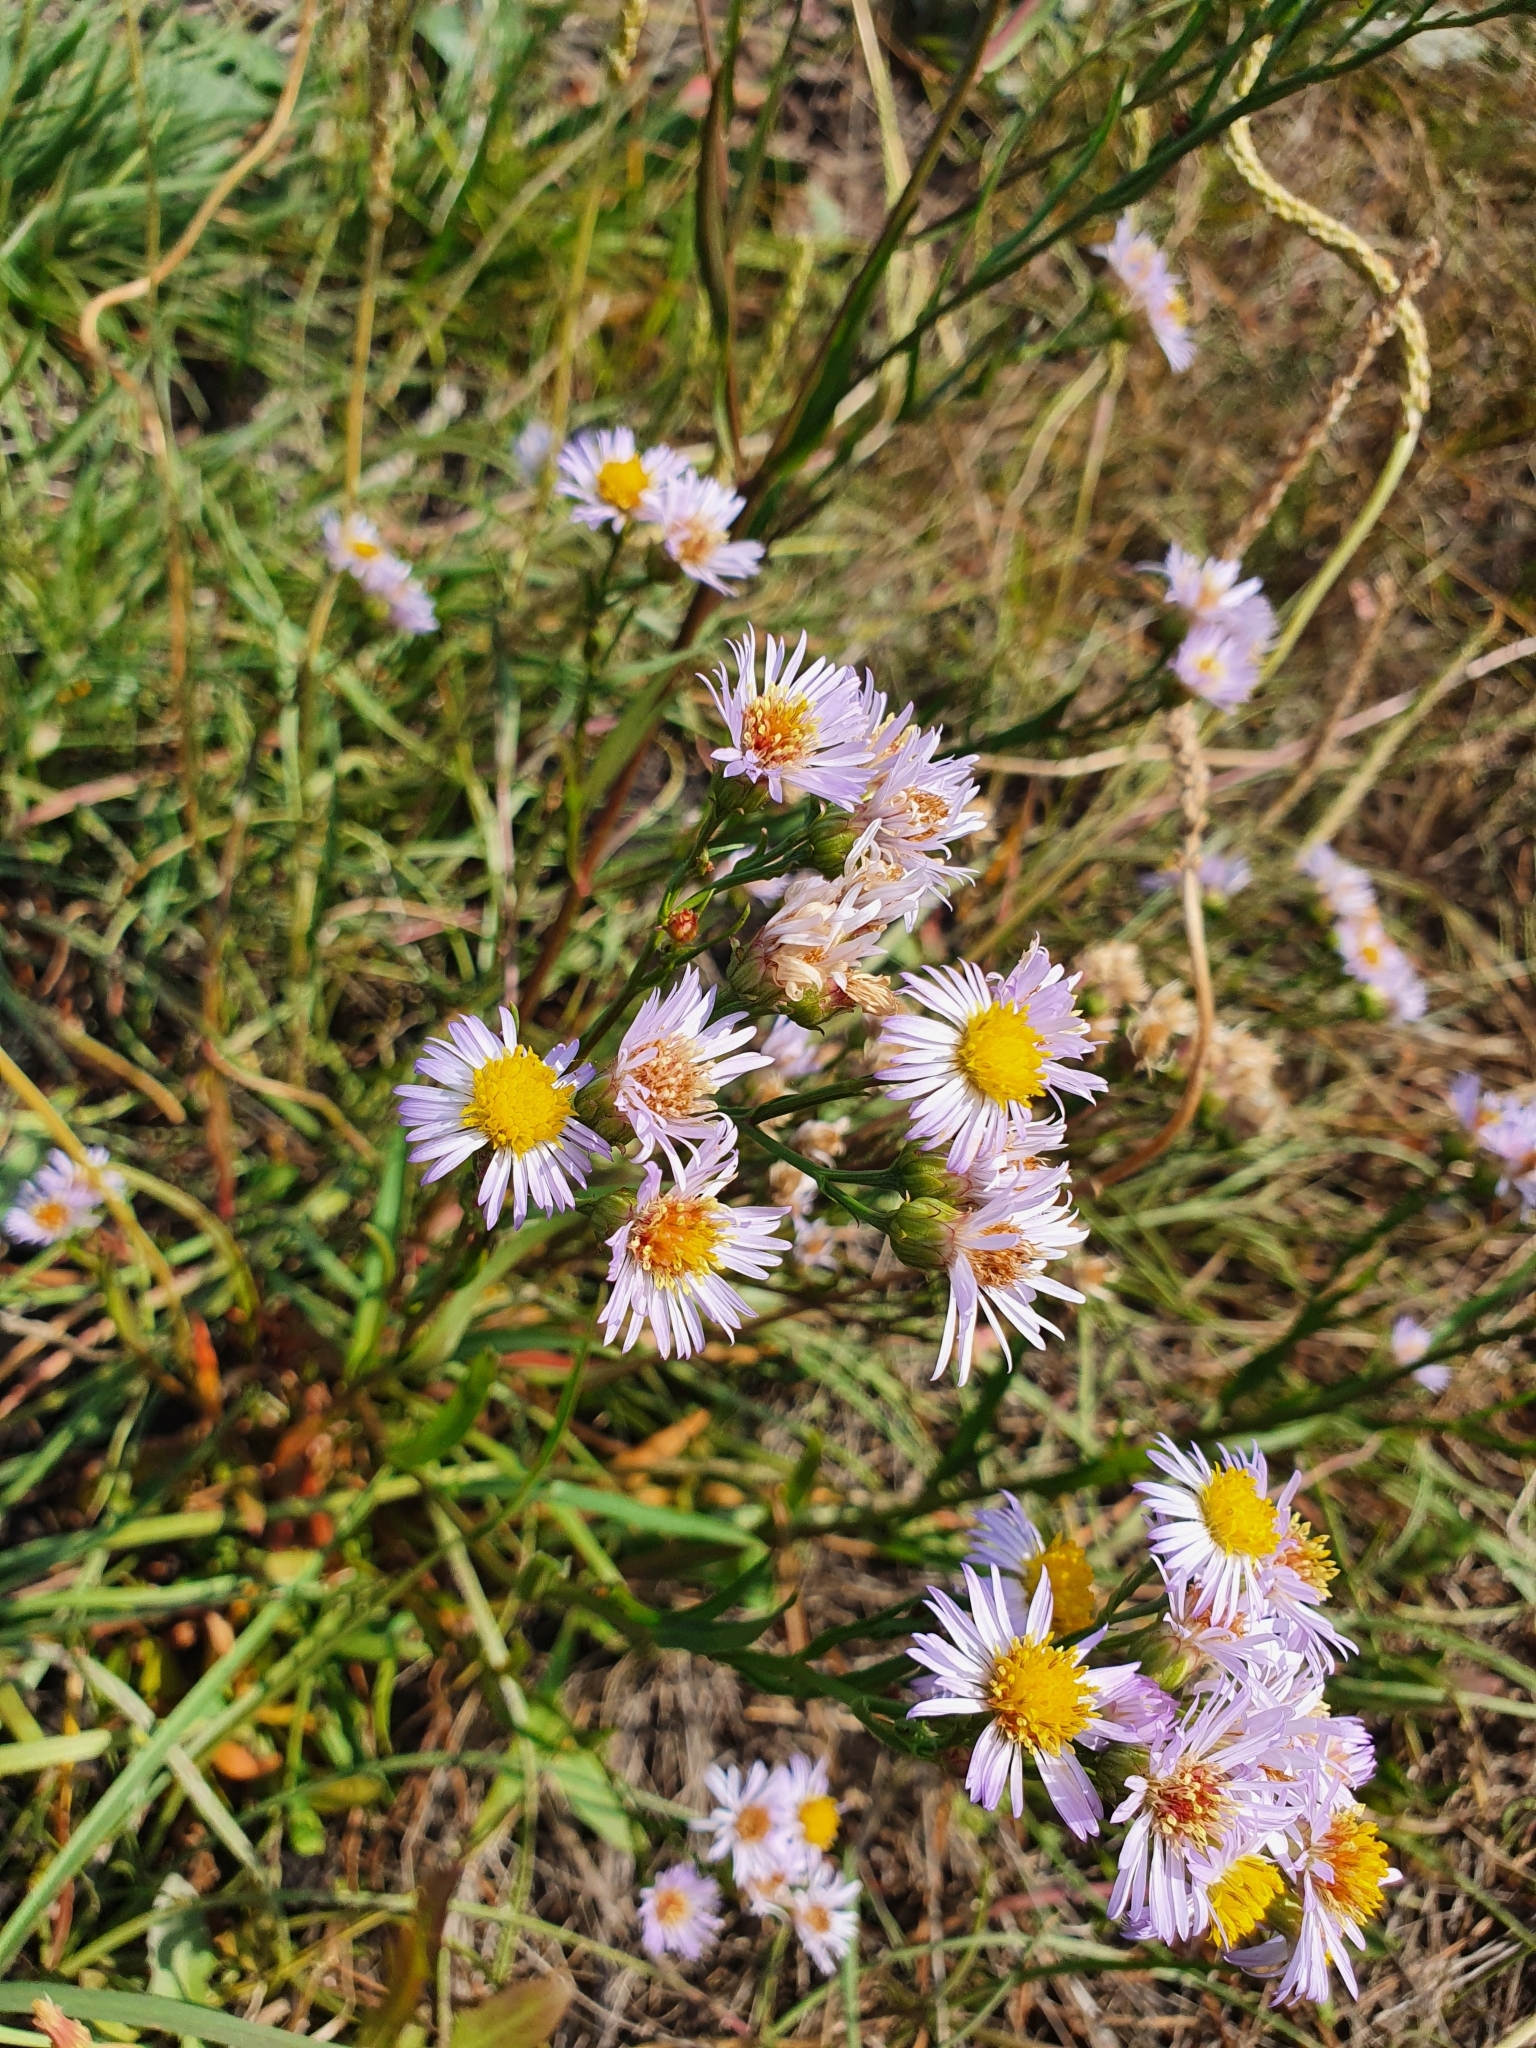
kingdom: Plantae
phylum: Tracheophyta
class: Magnoliopsida
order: Asterales
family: Asteraceae
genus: Tripolium
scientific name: Tripolium pannonicum
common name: Sea aster
